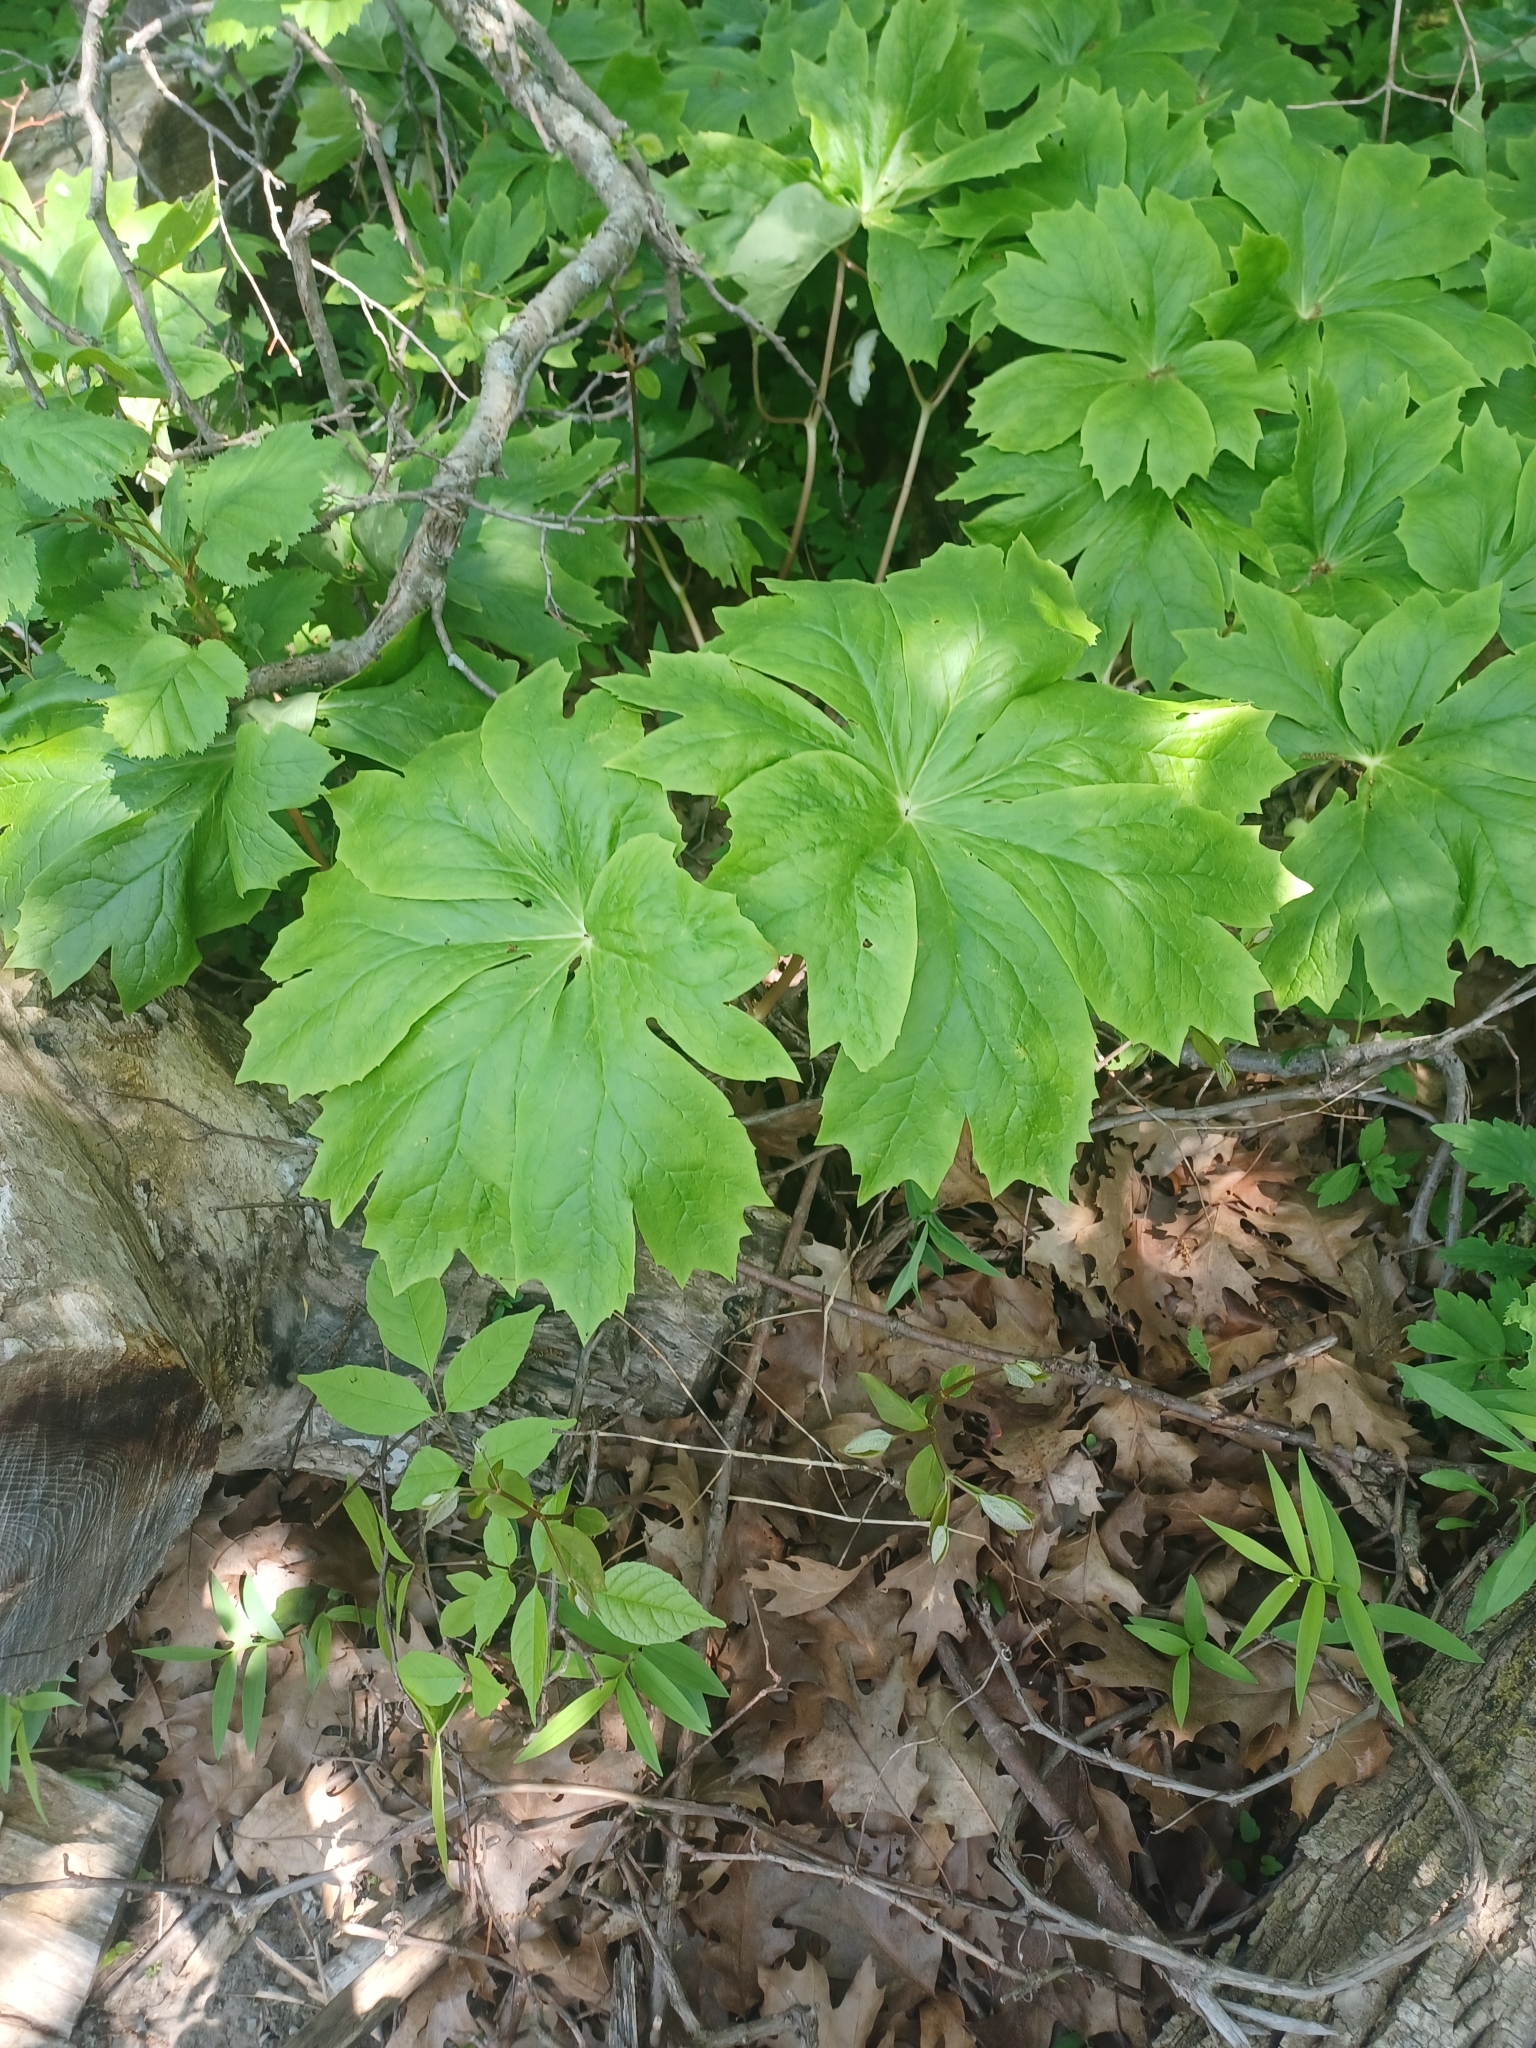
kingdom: Plantae
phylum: Tracheophyta
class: Magnoliopsida
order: Ranunculales
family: Berberidaceae
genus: Podophyllum
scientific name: Podophyllum peltatum
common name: Wild mandrake
